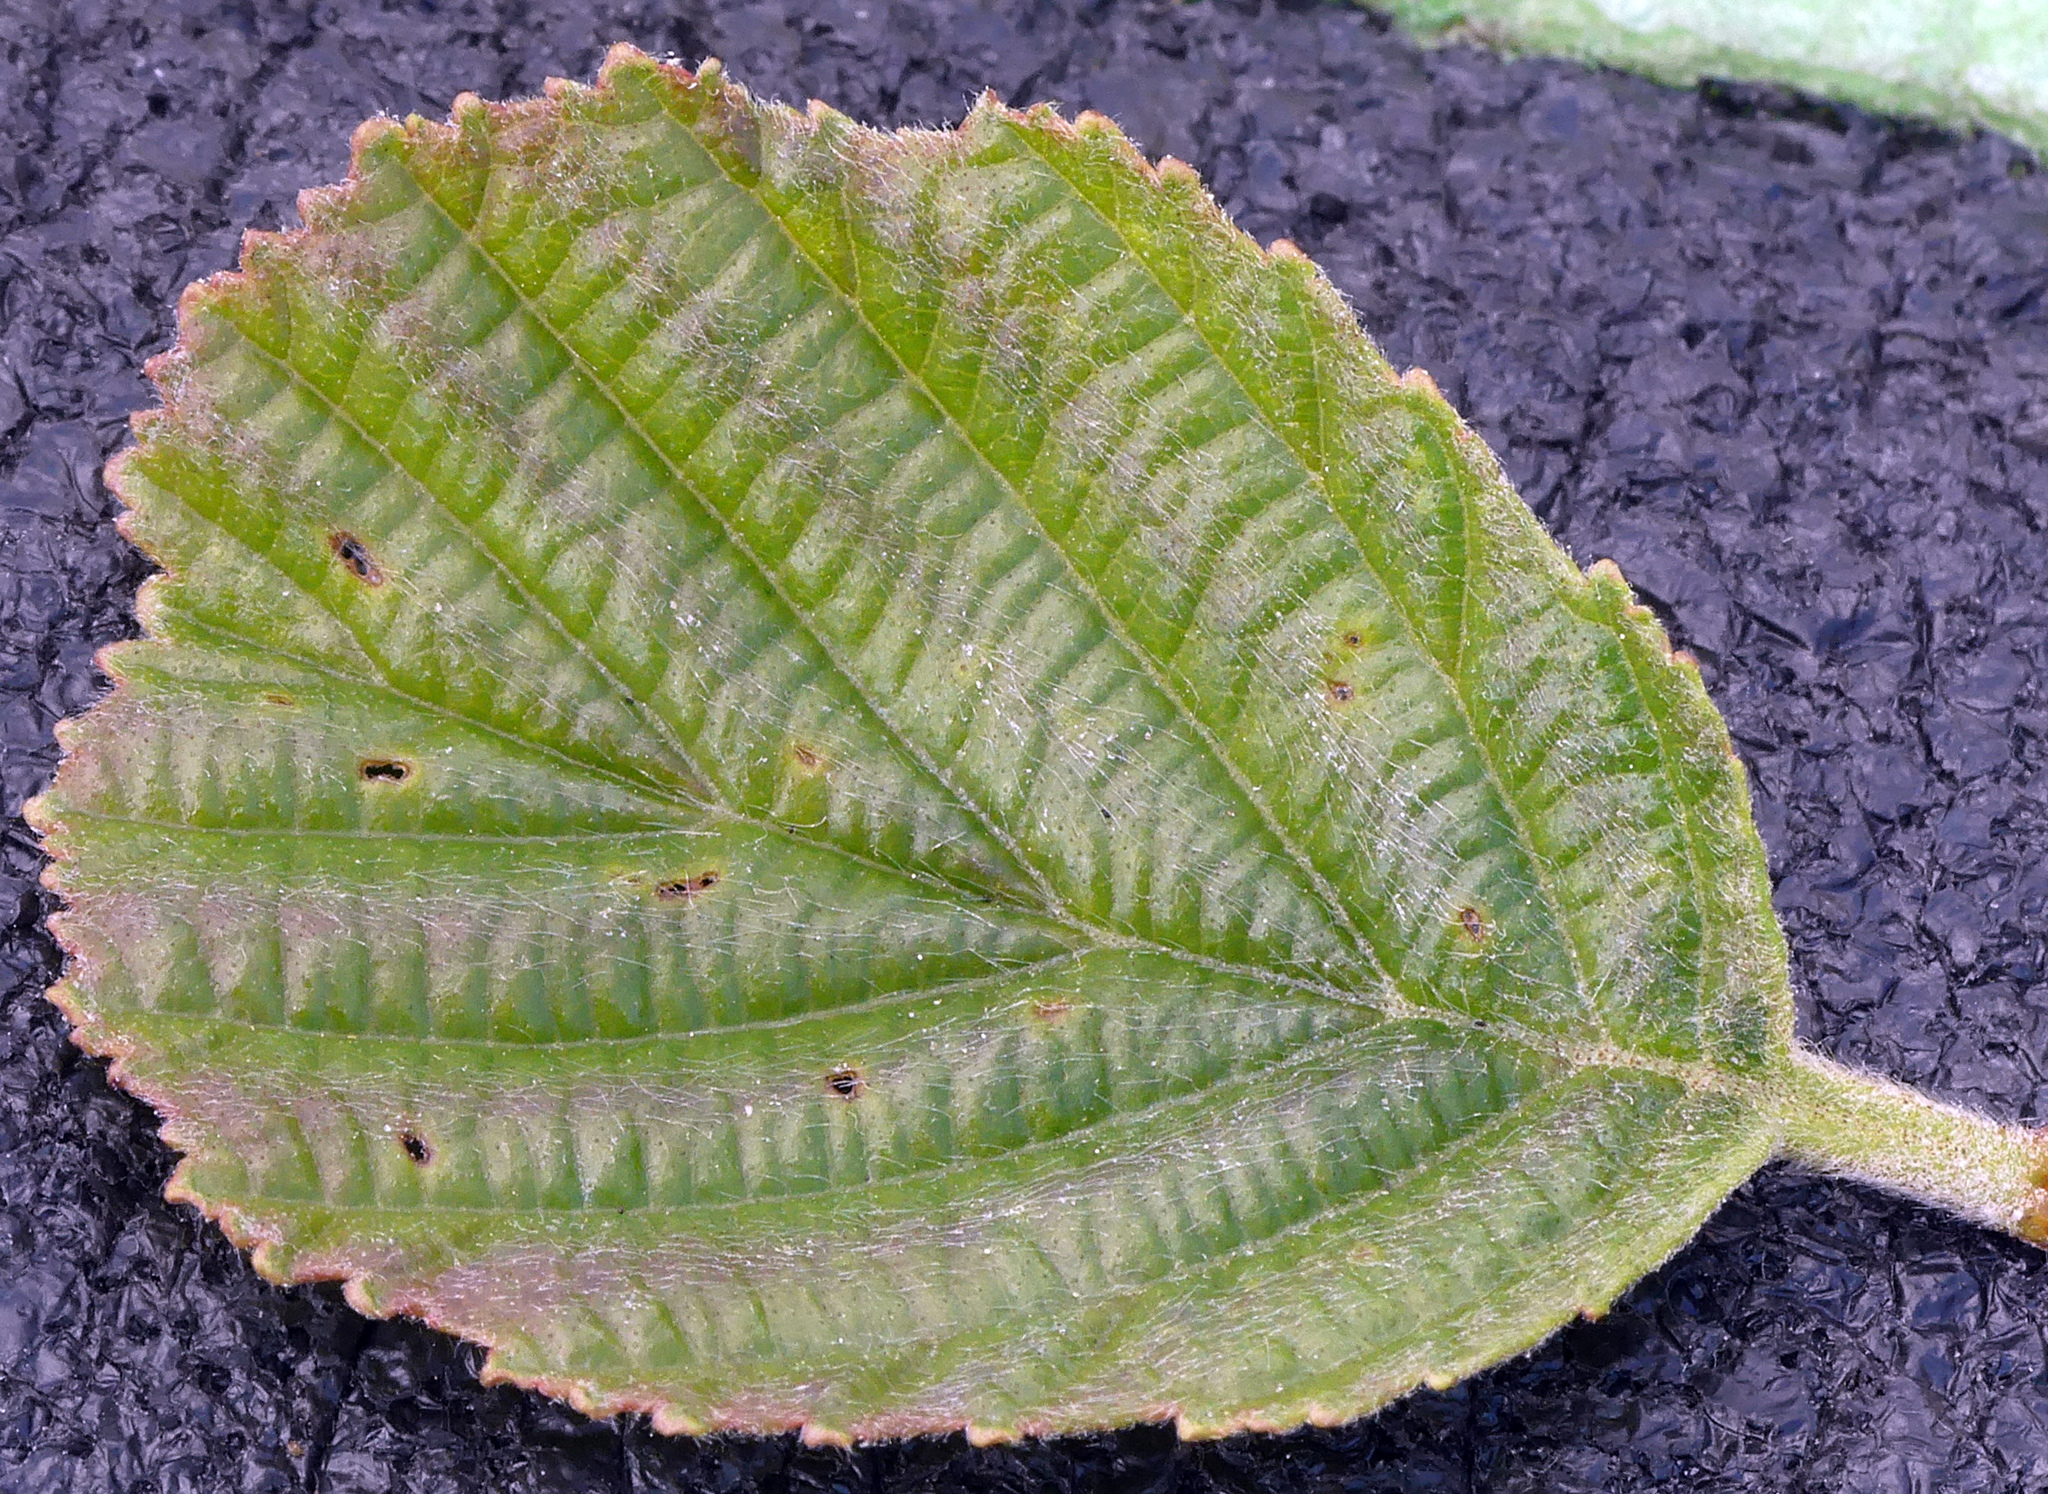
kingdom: Plantae
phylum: Tracheophyta
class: Magnoliopsida
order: Fagales
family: Betulaceae
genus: Alnus
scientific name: Alnus glutinosa
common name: Black alder
